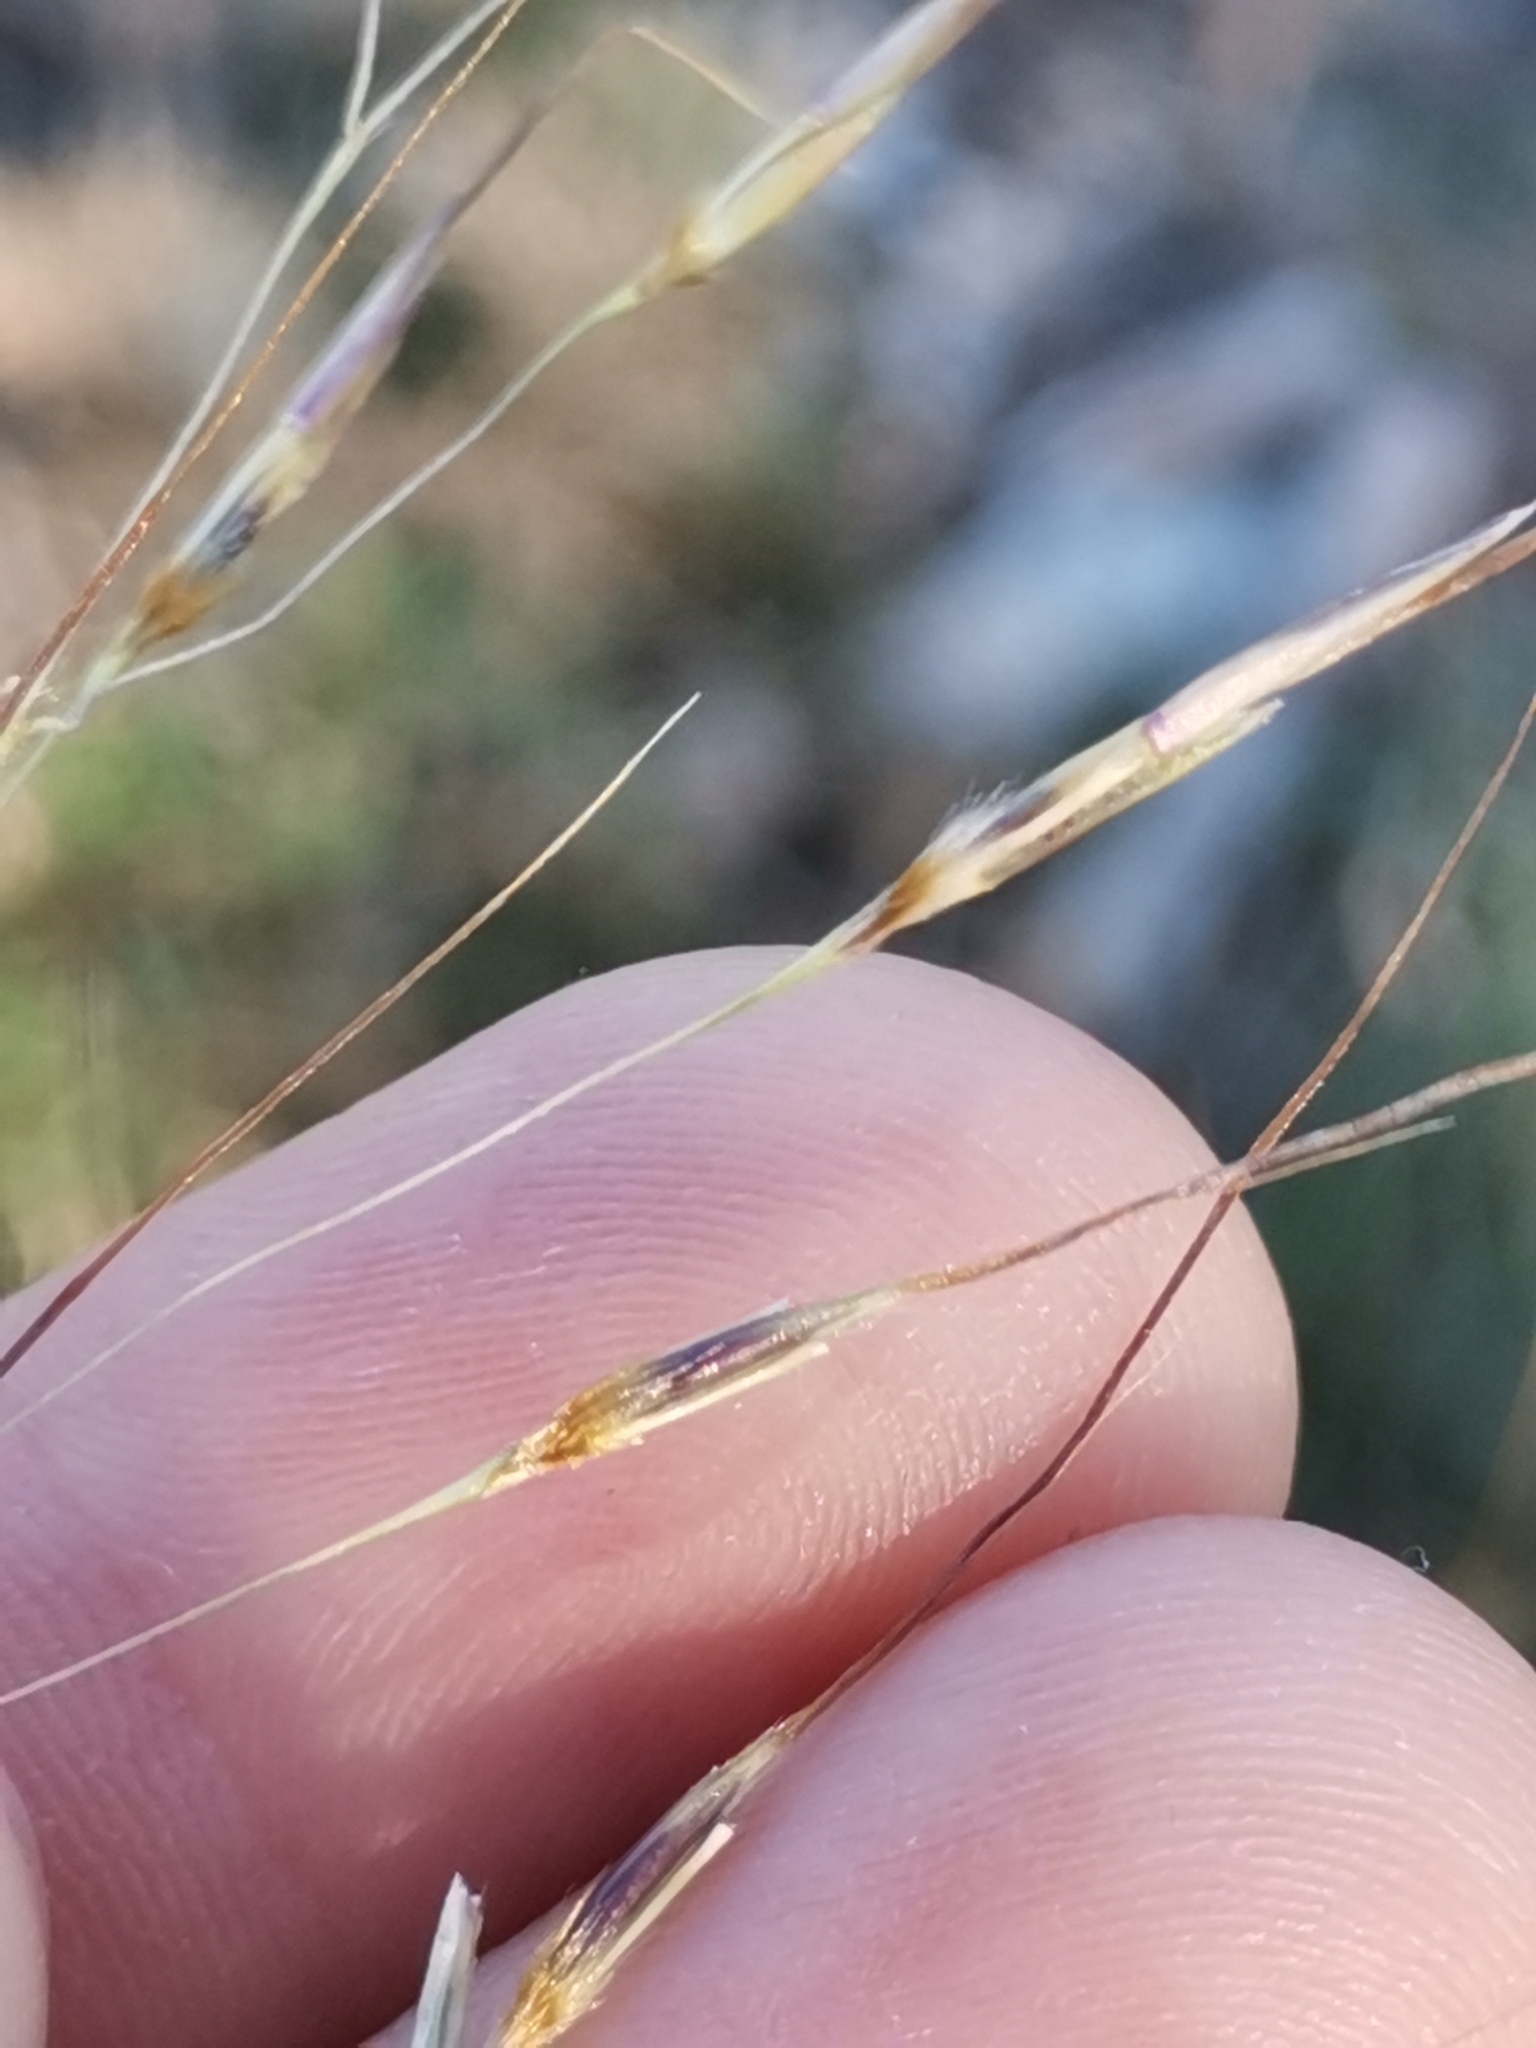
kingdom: Plantae
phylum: Tracheophyta
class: Liliopsida
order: Poales
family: Poaceae
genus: Chrysopogon
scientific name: Chrysopogon gryllus
